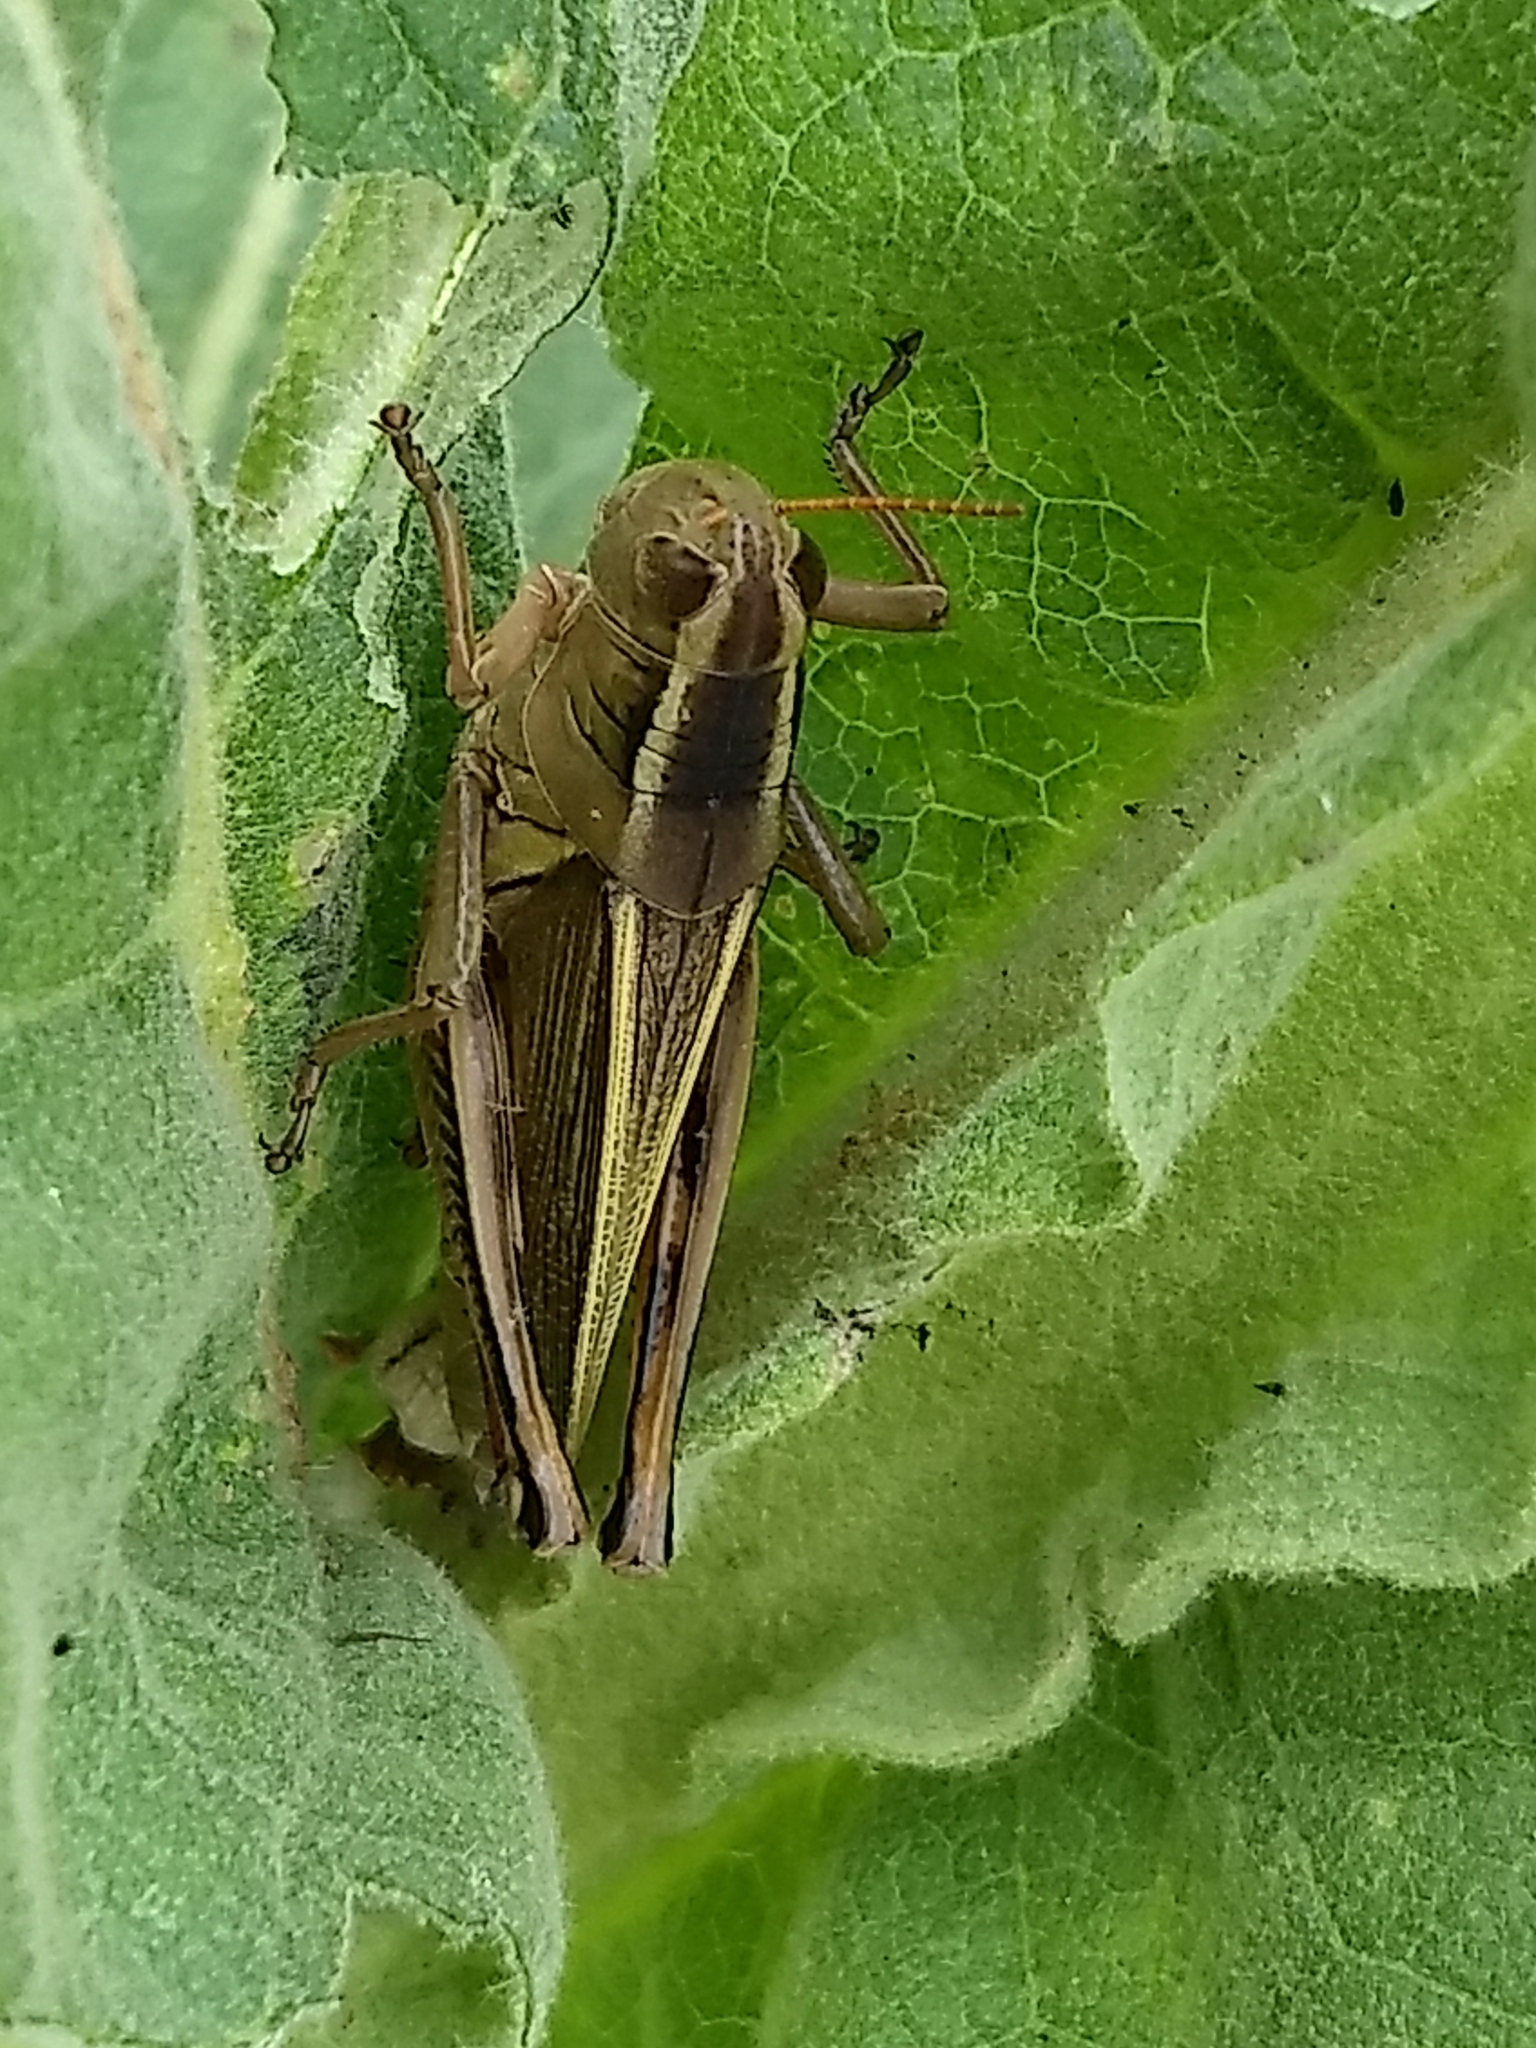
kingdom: Animalia
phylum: Arthropoda
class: Insecta
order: Orthoptera
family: Acrididae
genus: Melanoplus
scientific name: Melanoplus bivittatus
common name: Two-striped grasshopper
